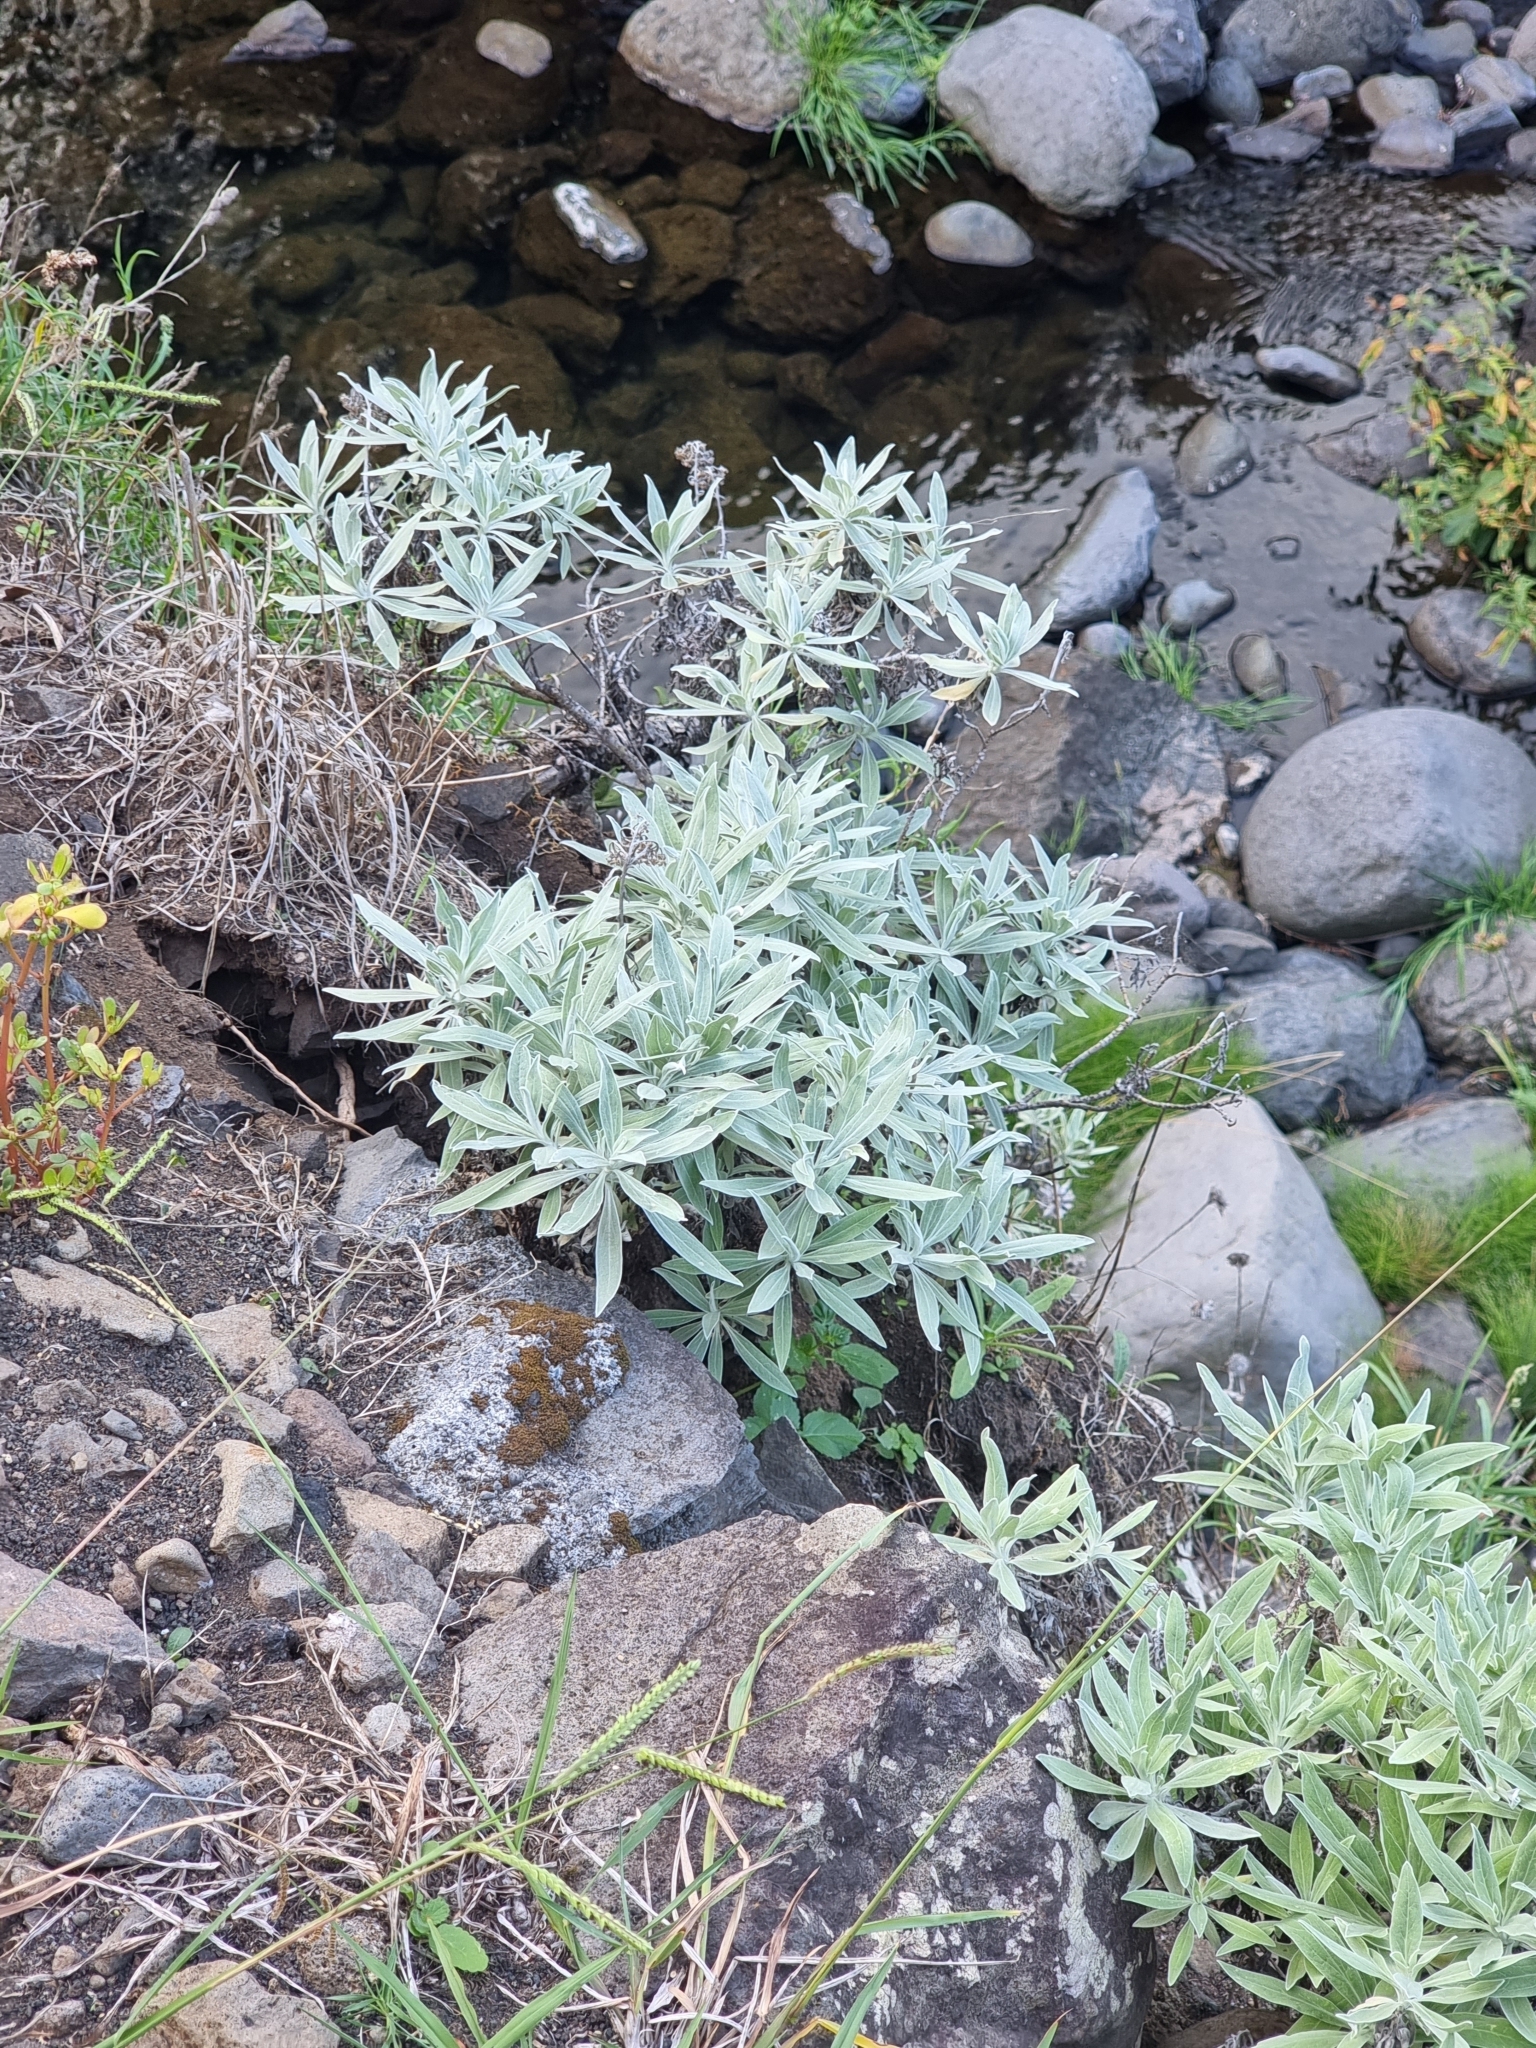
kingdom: Plantae
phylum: Tracheophyta
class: Magnoliopsida
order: Asterales
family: Asteraceae
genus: Helichrysum
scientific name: Helichrysum melaleucum
